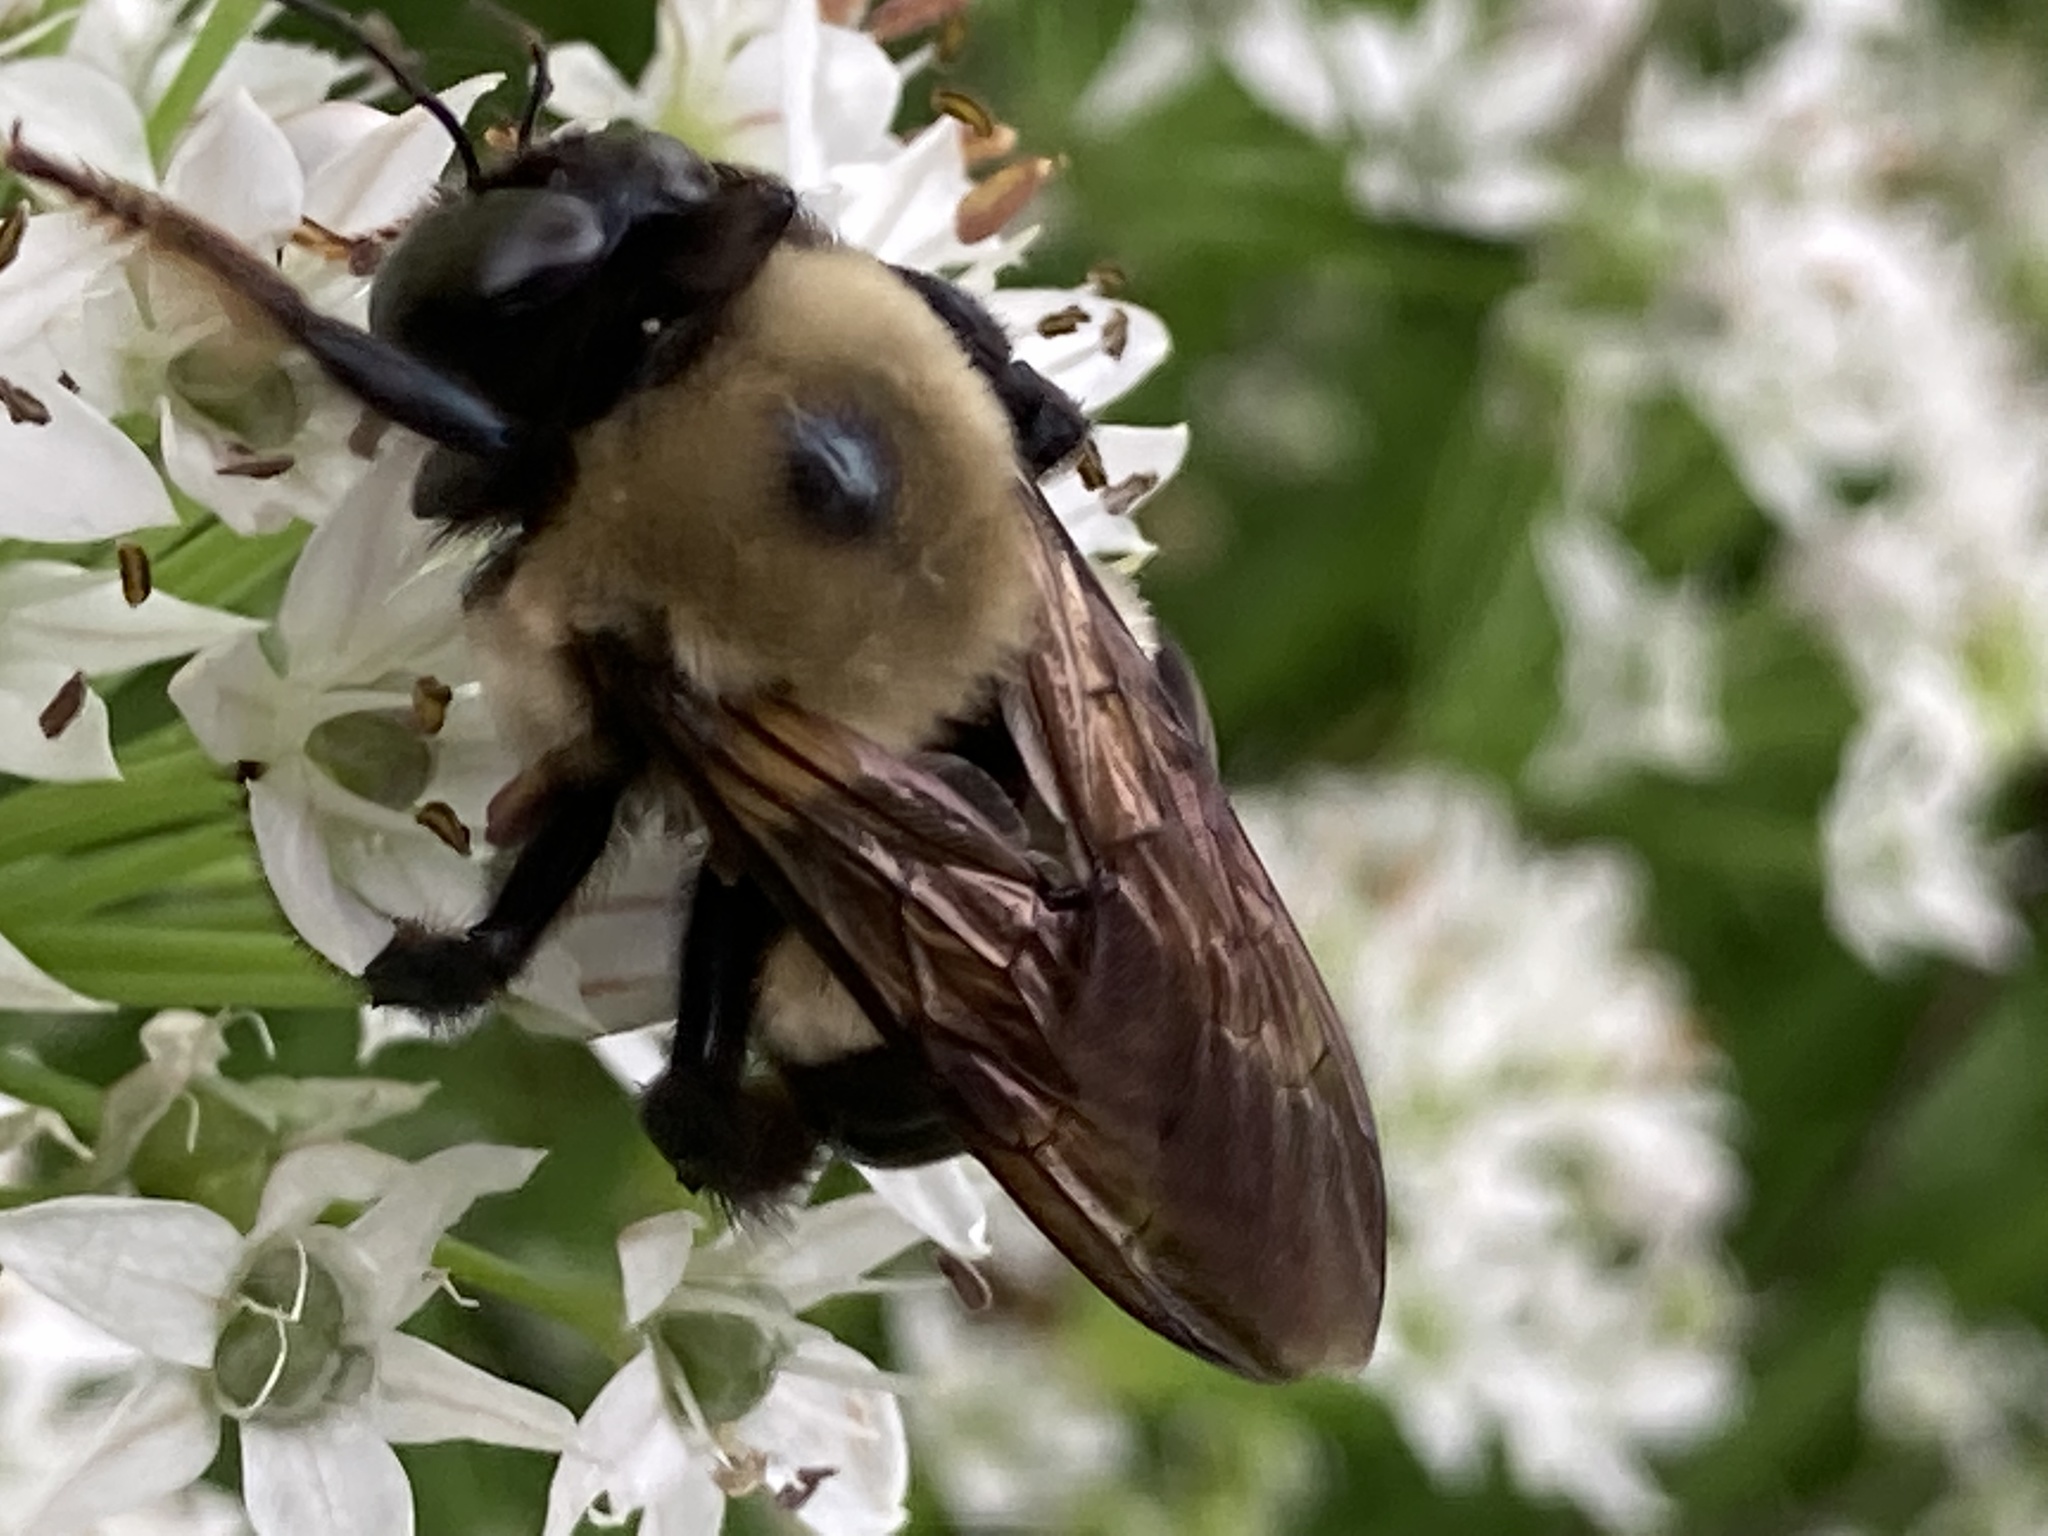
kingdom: Animalia
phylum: Arthropoda
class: Insecta
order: Hymenoptera
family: Apidae
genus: Xylocopa
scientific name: Xylocopa virginica
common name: Carpenter bee
